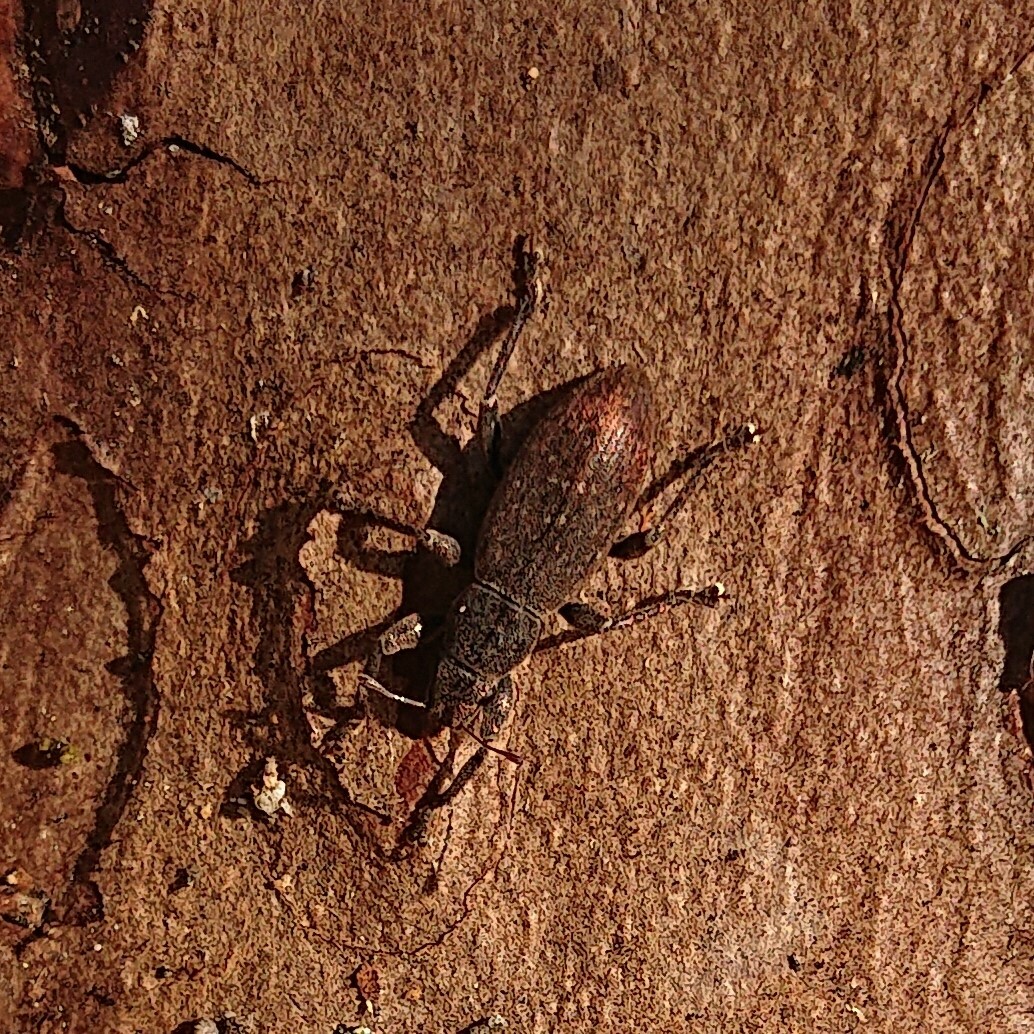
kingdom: Animalia
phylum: Arthropoda
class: Insecta
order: Coleoptera
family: Curculionidae
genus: Brachyderes
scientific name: Brachyderes incanus
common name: Weevil
